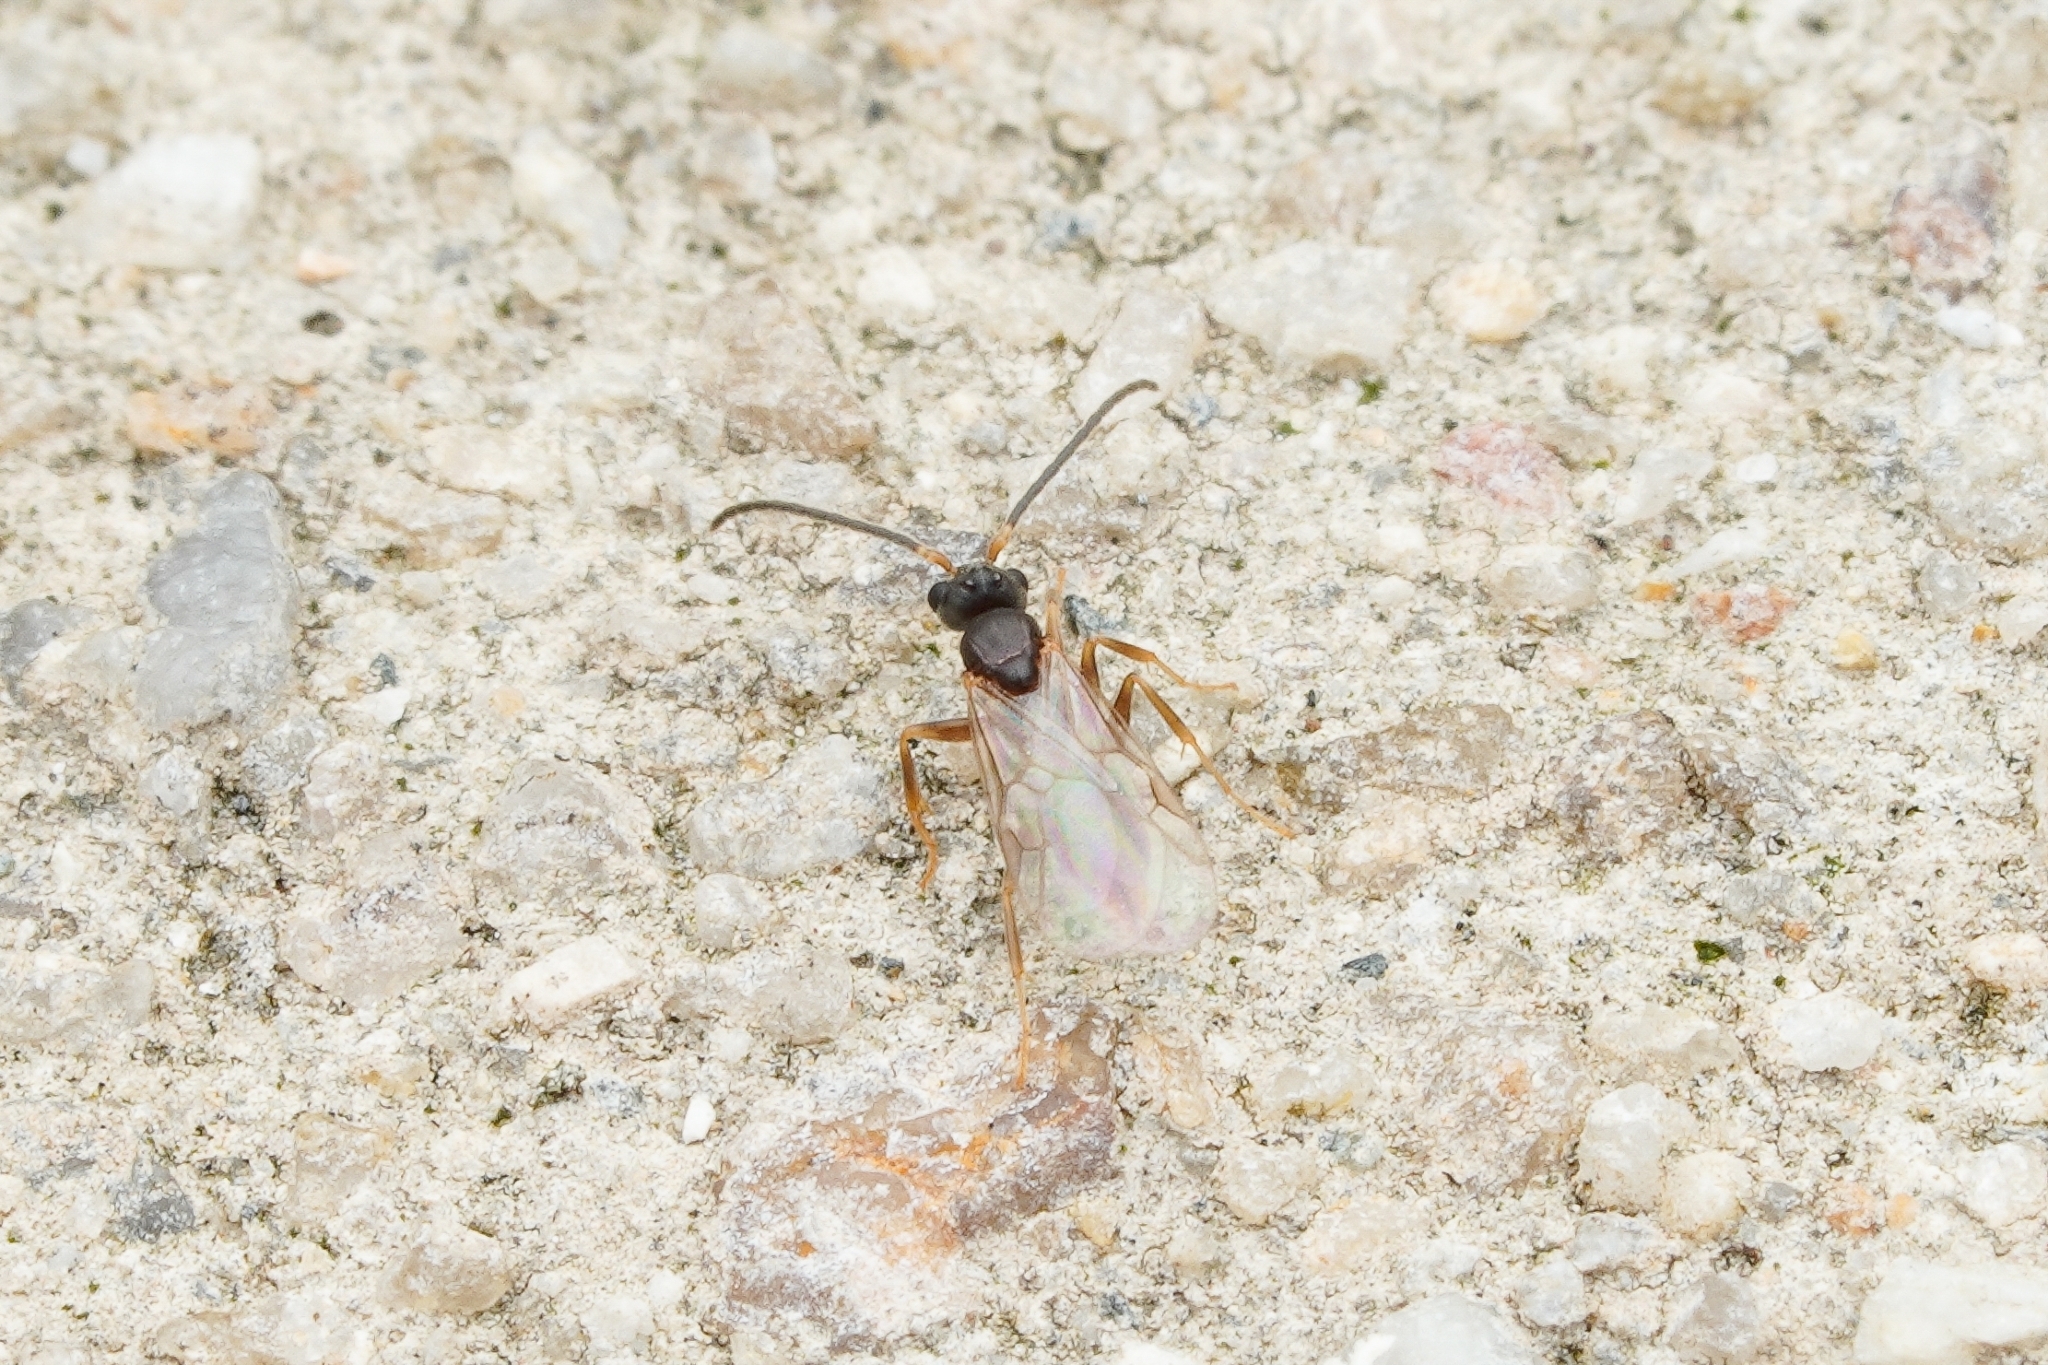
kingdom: Animalia
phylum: Arthropoda
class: Insecta
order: Hymenoptera
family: Formicidae
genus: Technomyrmex
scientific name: Technomyrmex gibbosus
